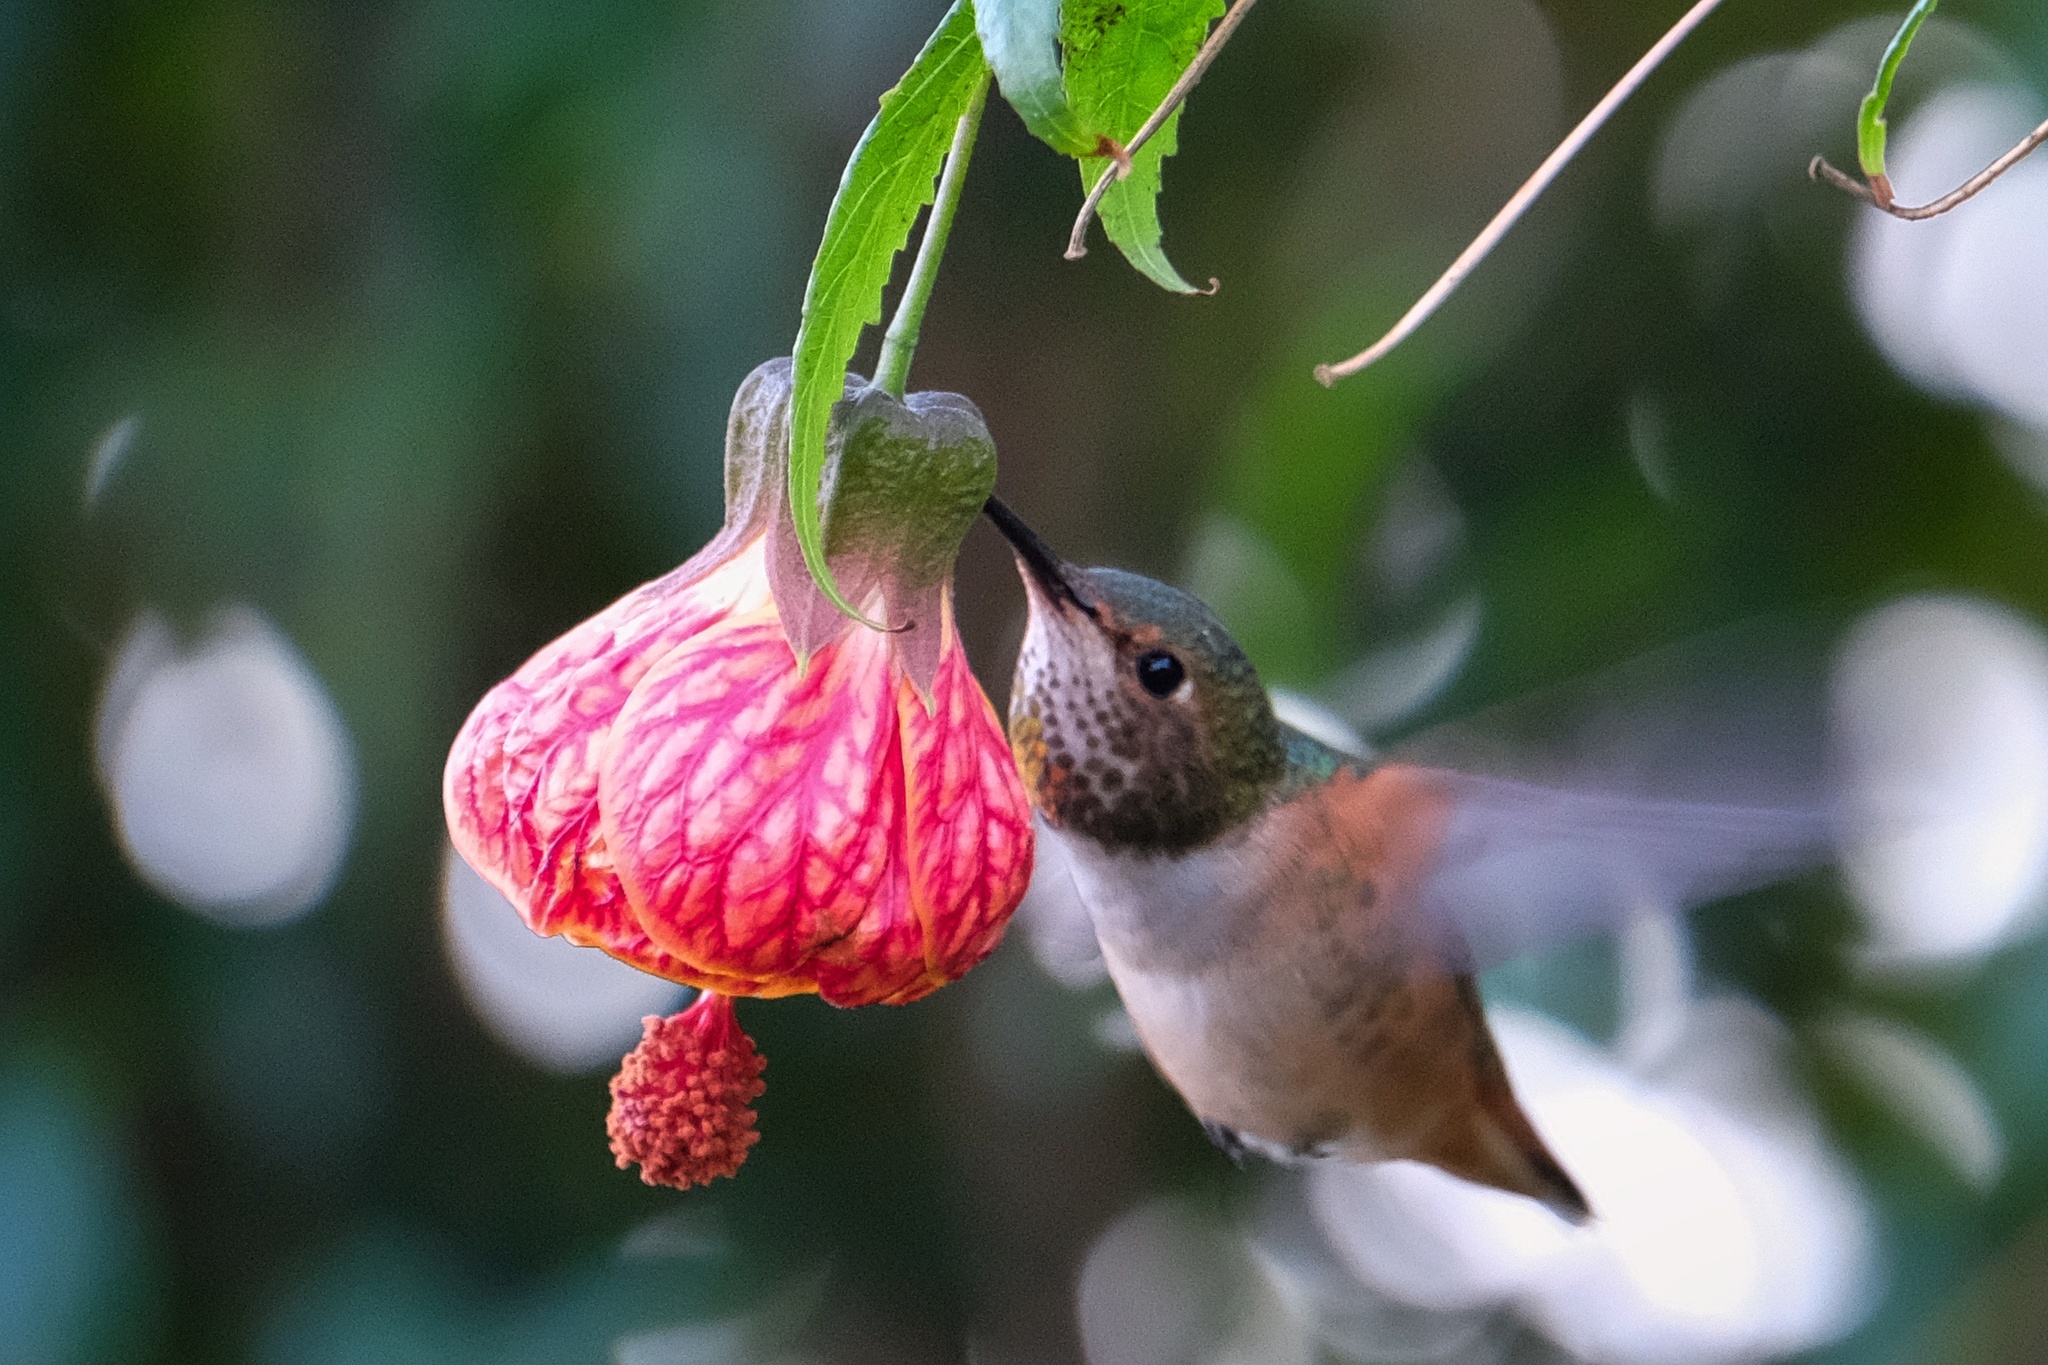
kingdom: Animalia
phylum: Chordata
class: Aves
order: Apodiformes
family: Trochilidae
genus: Selasphorus
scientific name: Selasphorus sasin
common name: Allen's hummingbird
